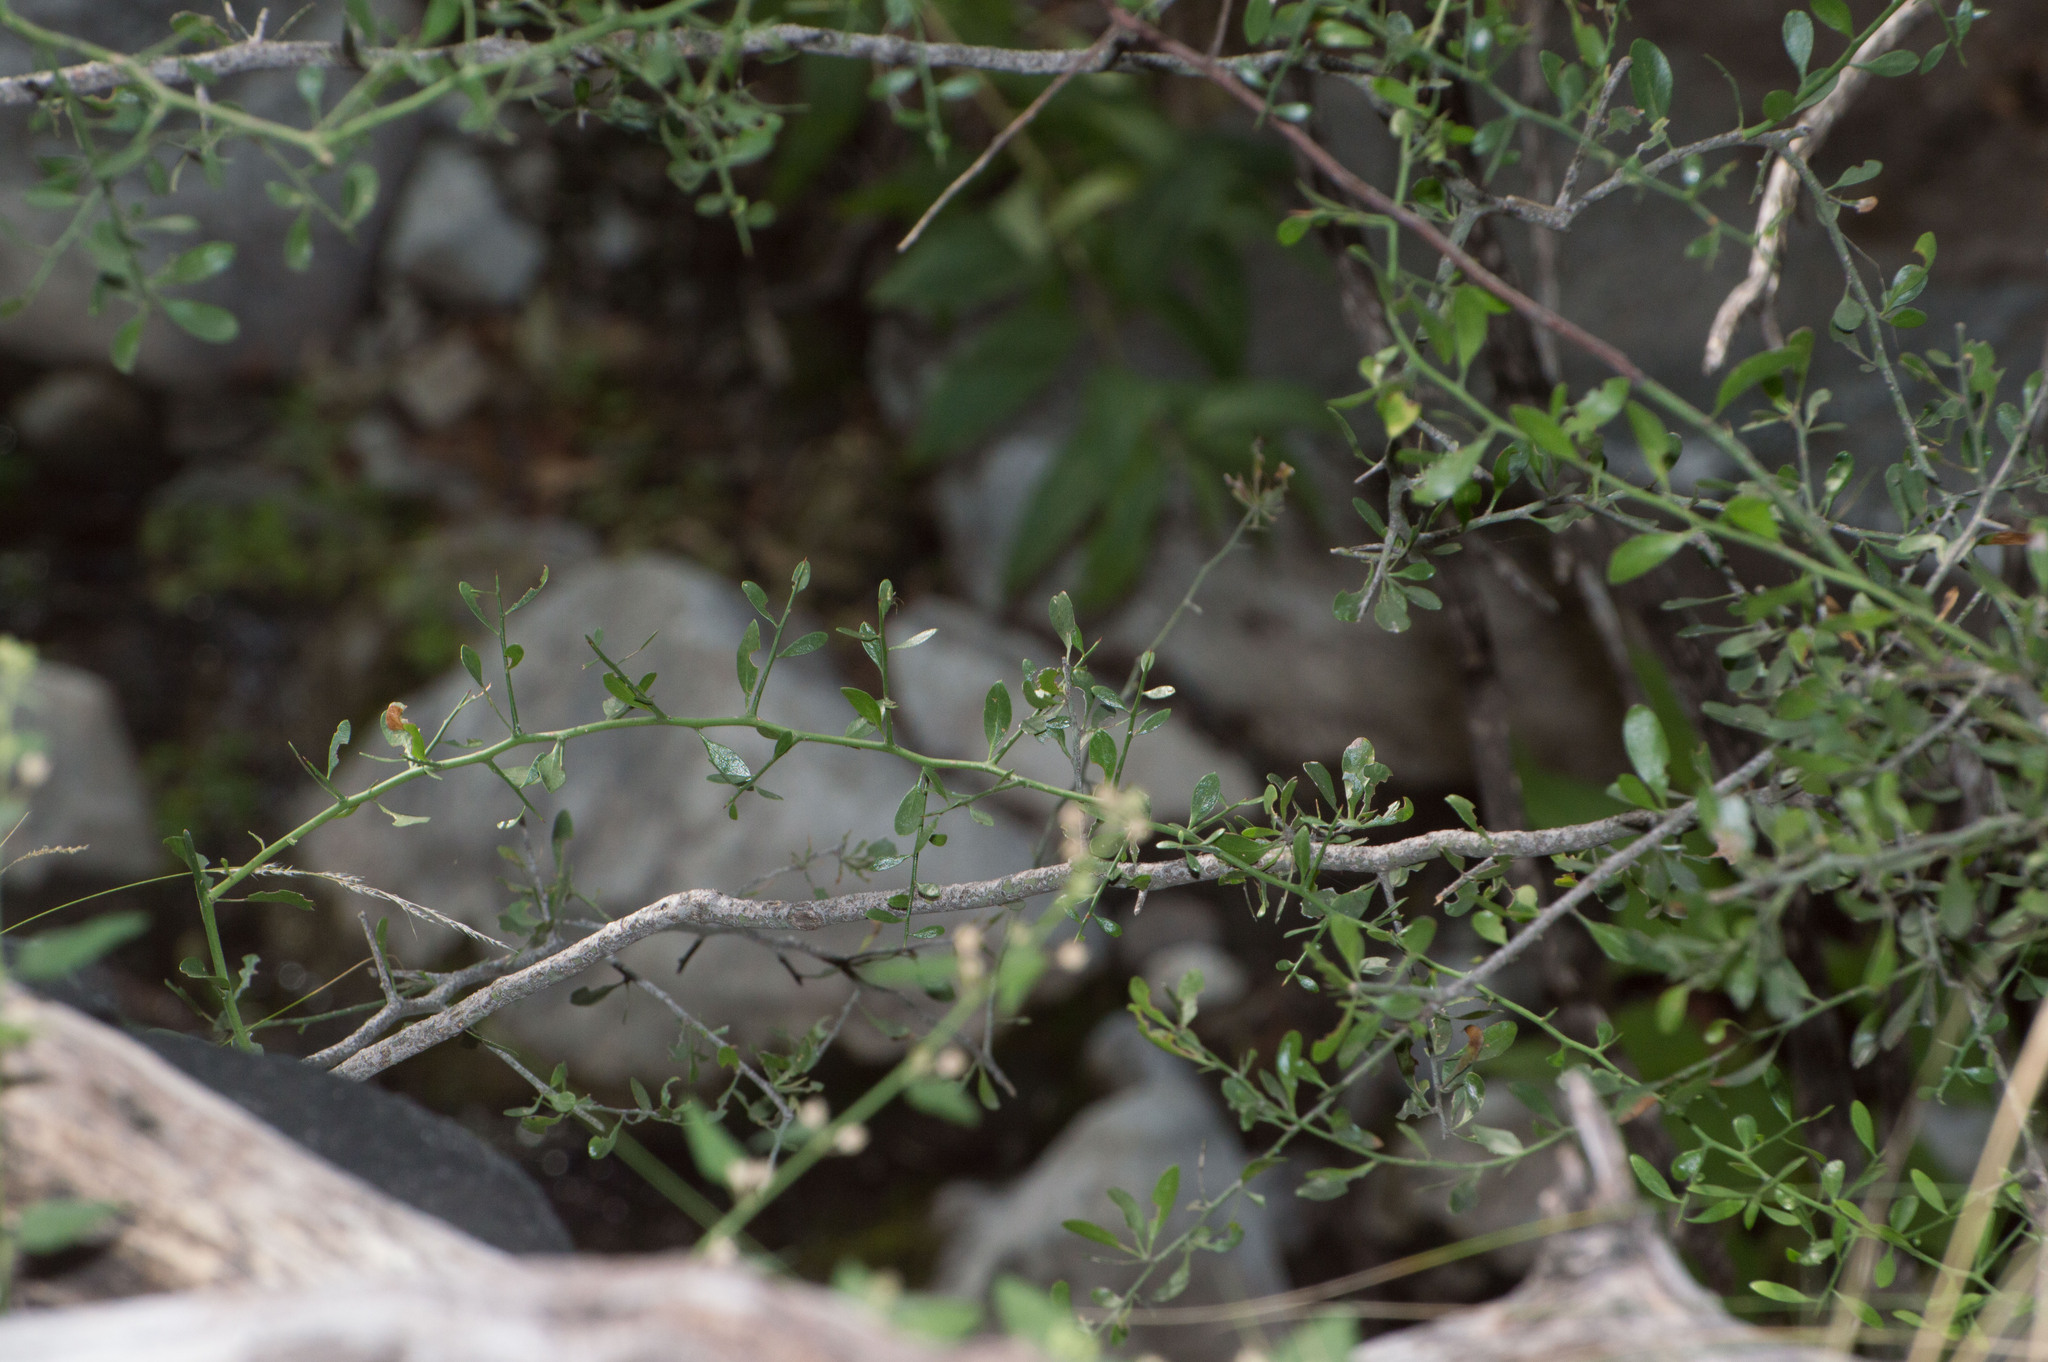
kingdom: Plantae
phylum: Tracheophyta
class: Magnoliopsida
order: Celastrales
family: Celastraceae
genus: Monteverdia
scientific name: Monteverdia spinosa
